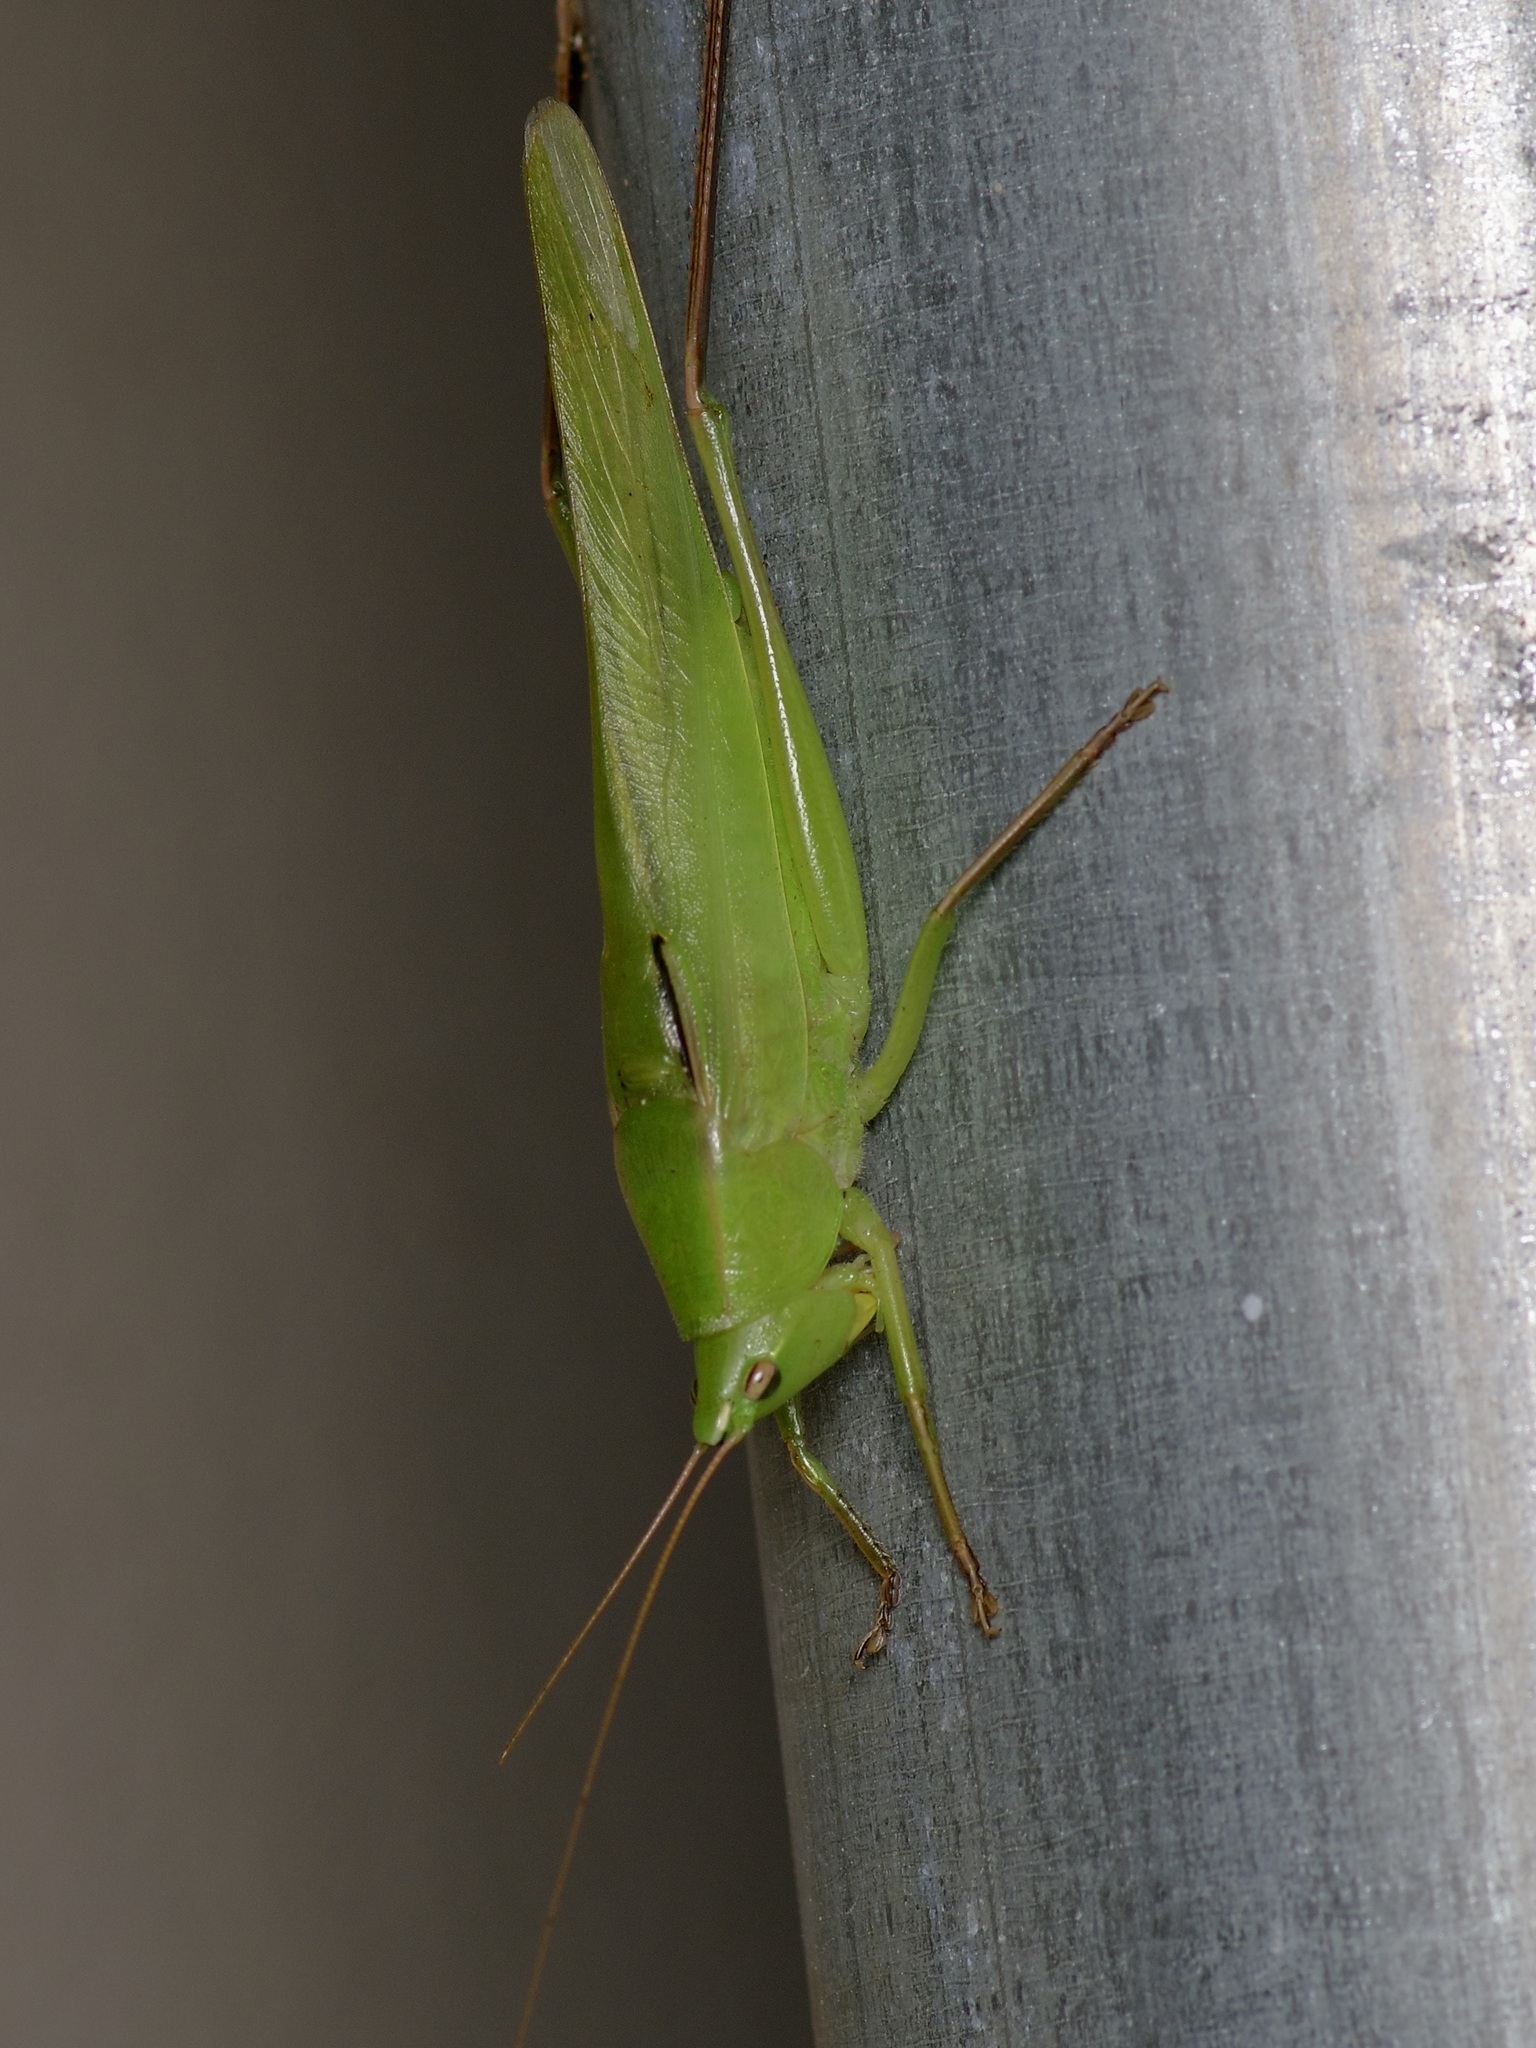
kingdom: Animalia
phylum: Arthropoda
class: Insecta
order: Orthoptera
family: Tettigoniidae
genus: Neoconocephalus
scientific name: Neoconocephalus triops
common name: Broad-tipped conehead
